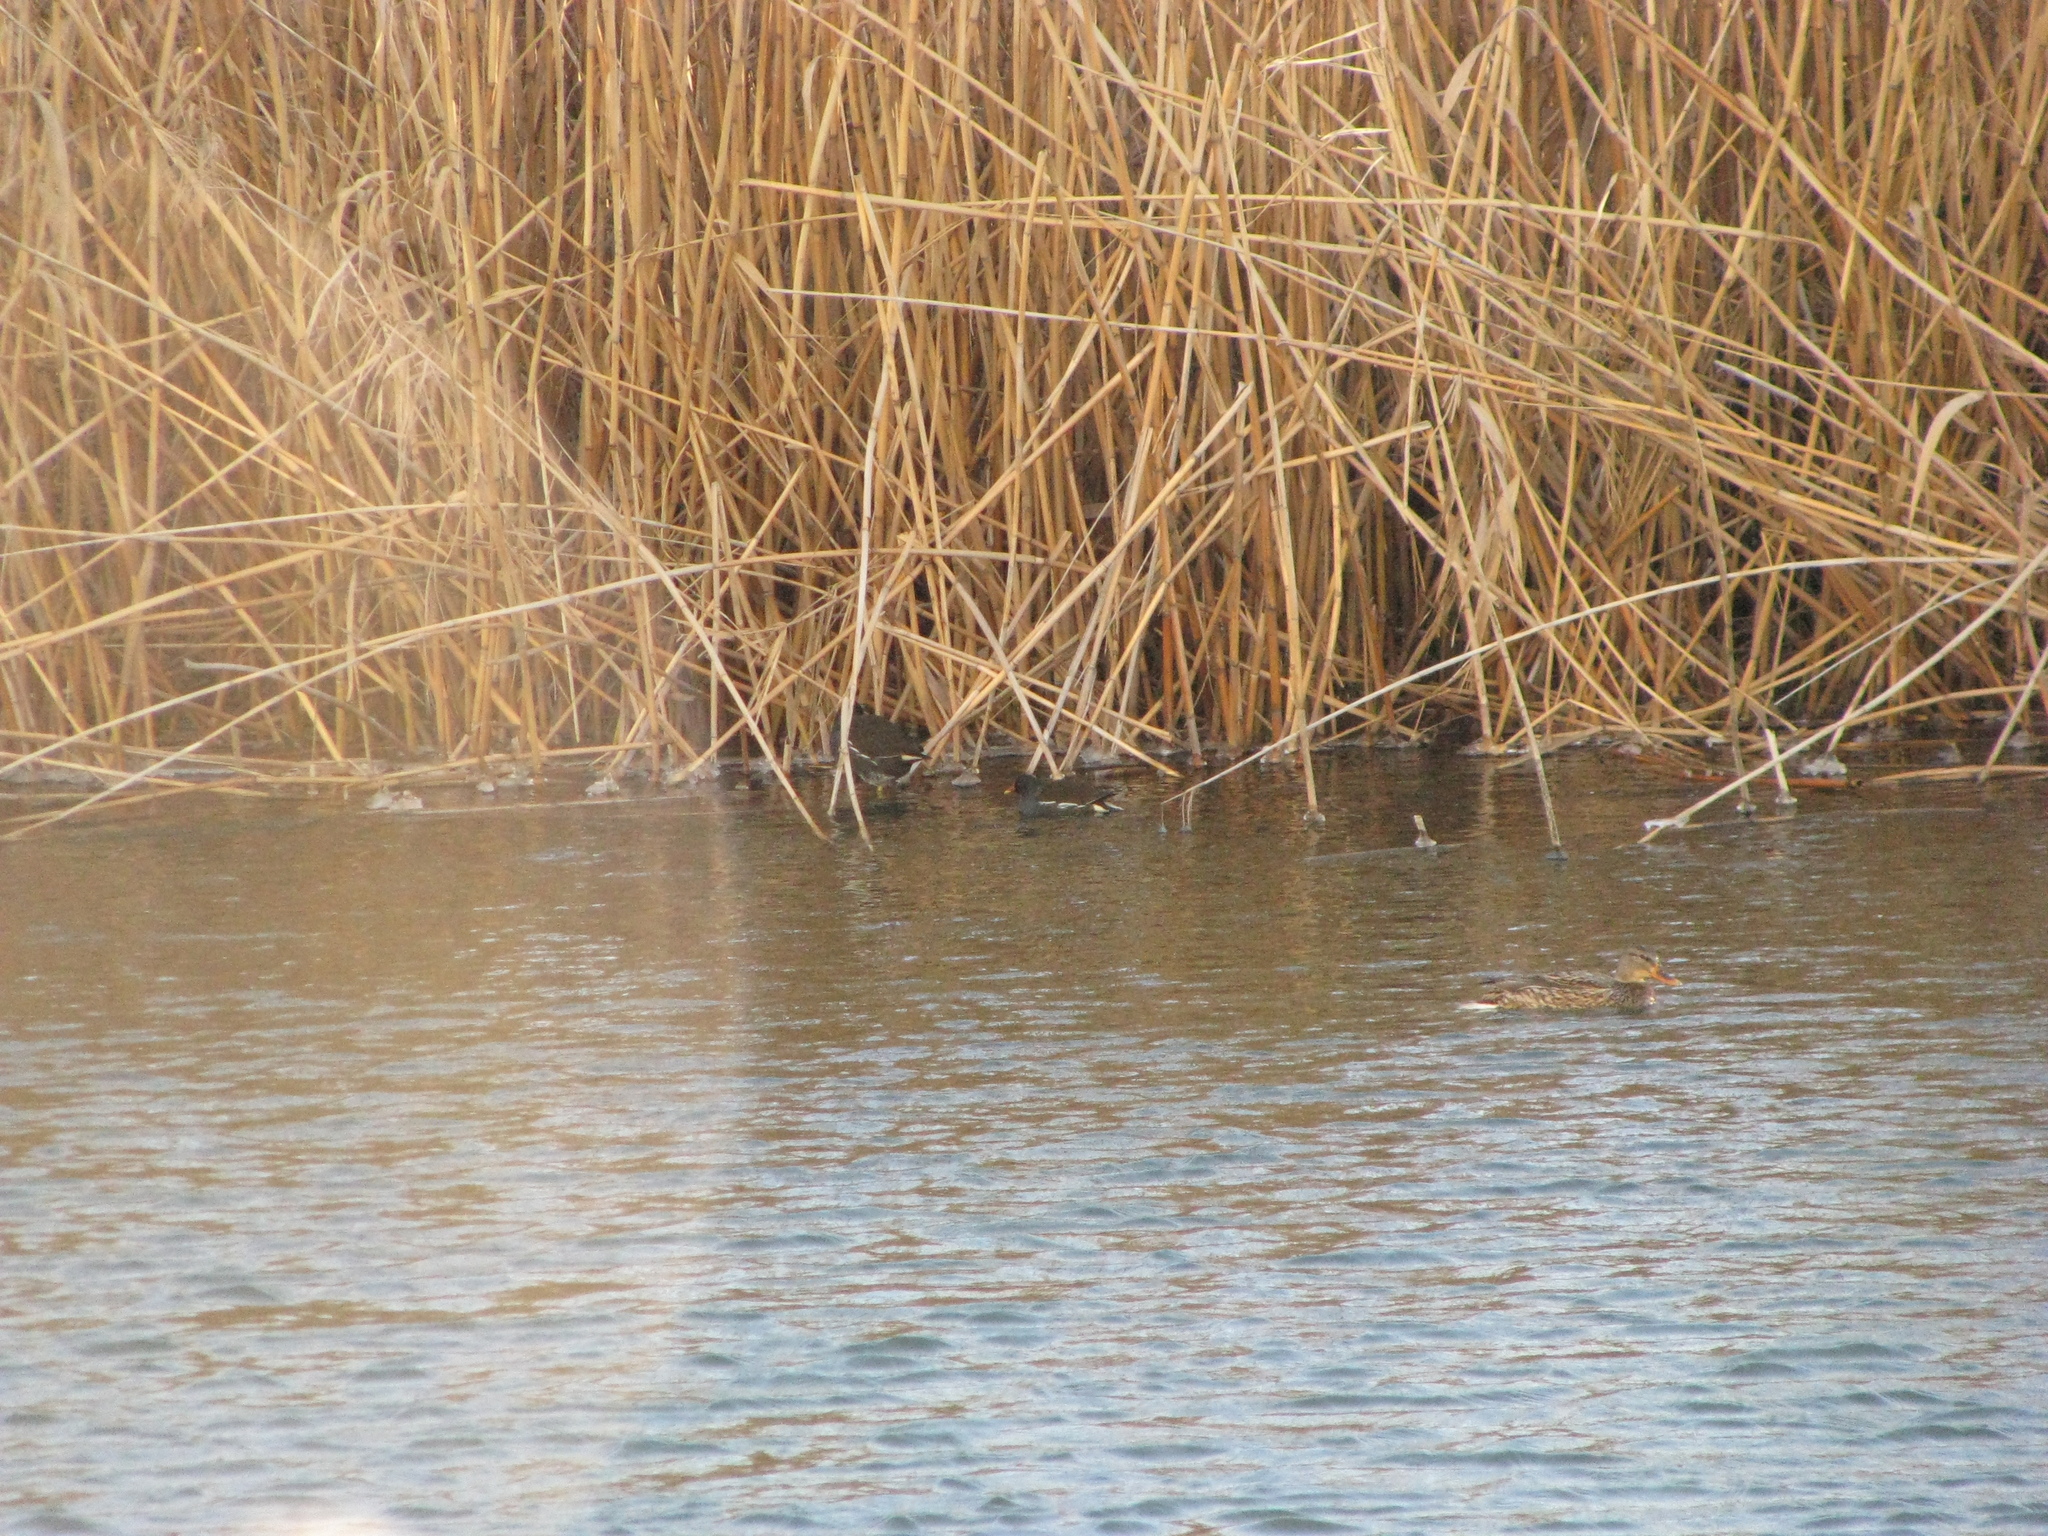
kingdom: Animalia
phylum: Chordata
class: Aves
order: Gruiformes
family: Rallidae
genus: Gallinula
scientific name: Gallinula chloropus
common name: Common moorhen
